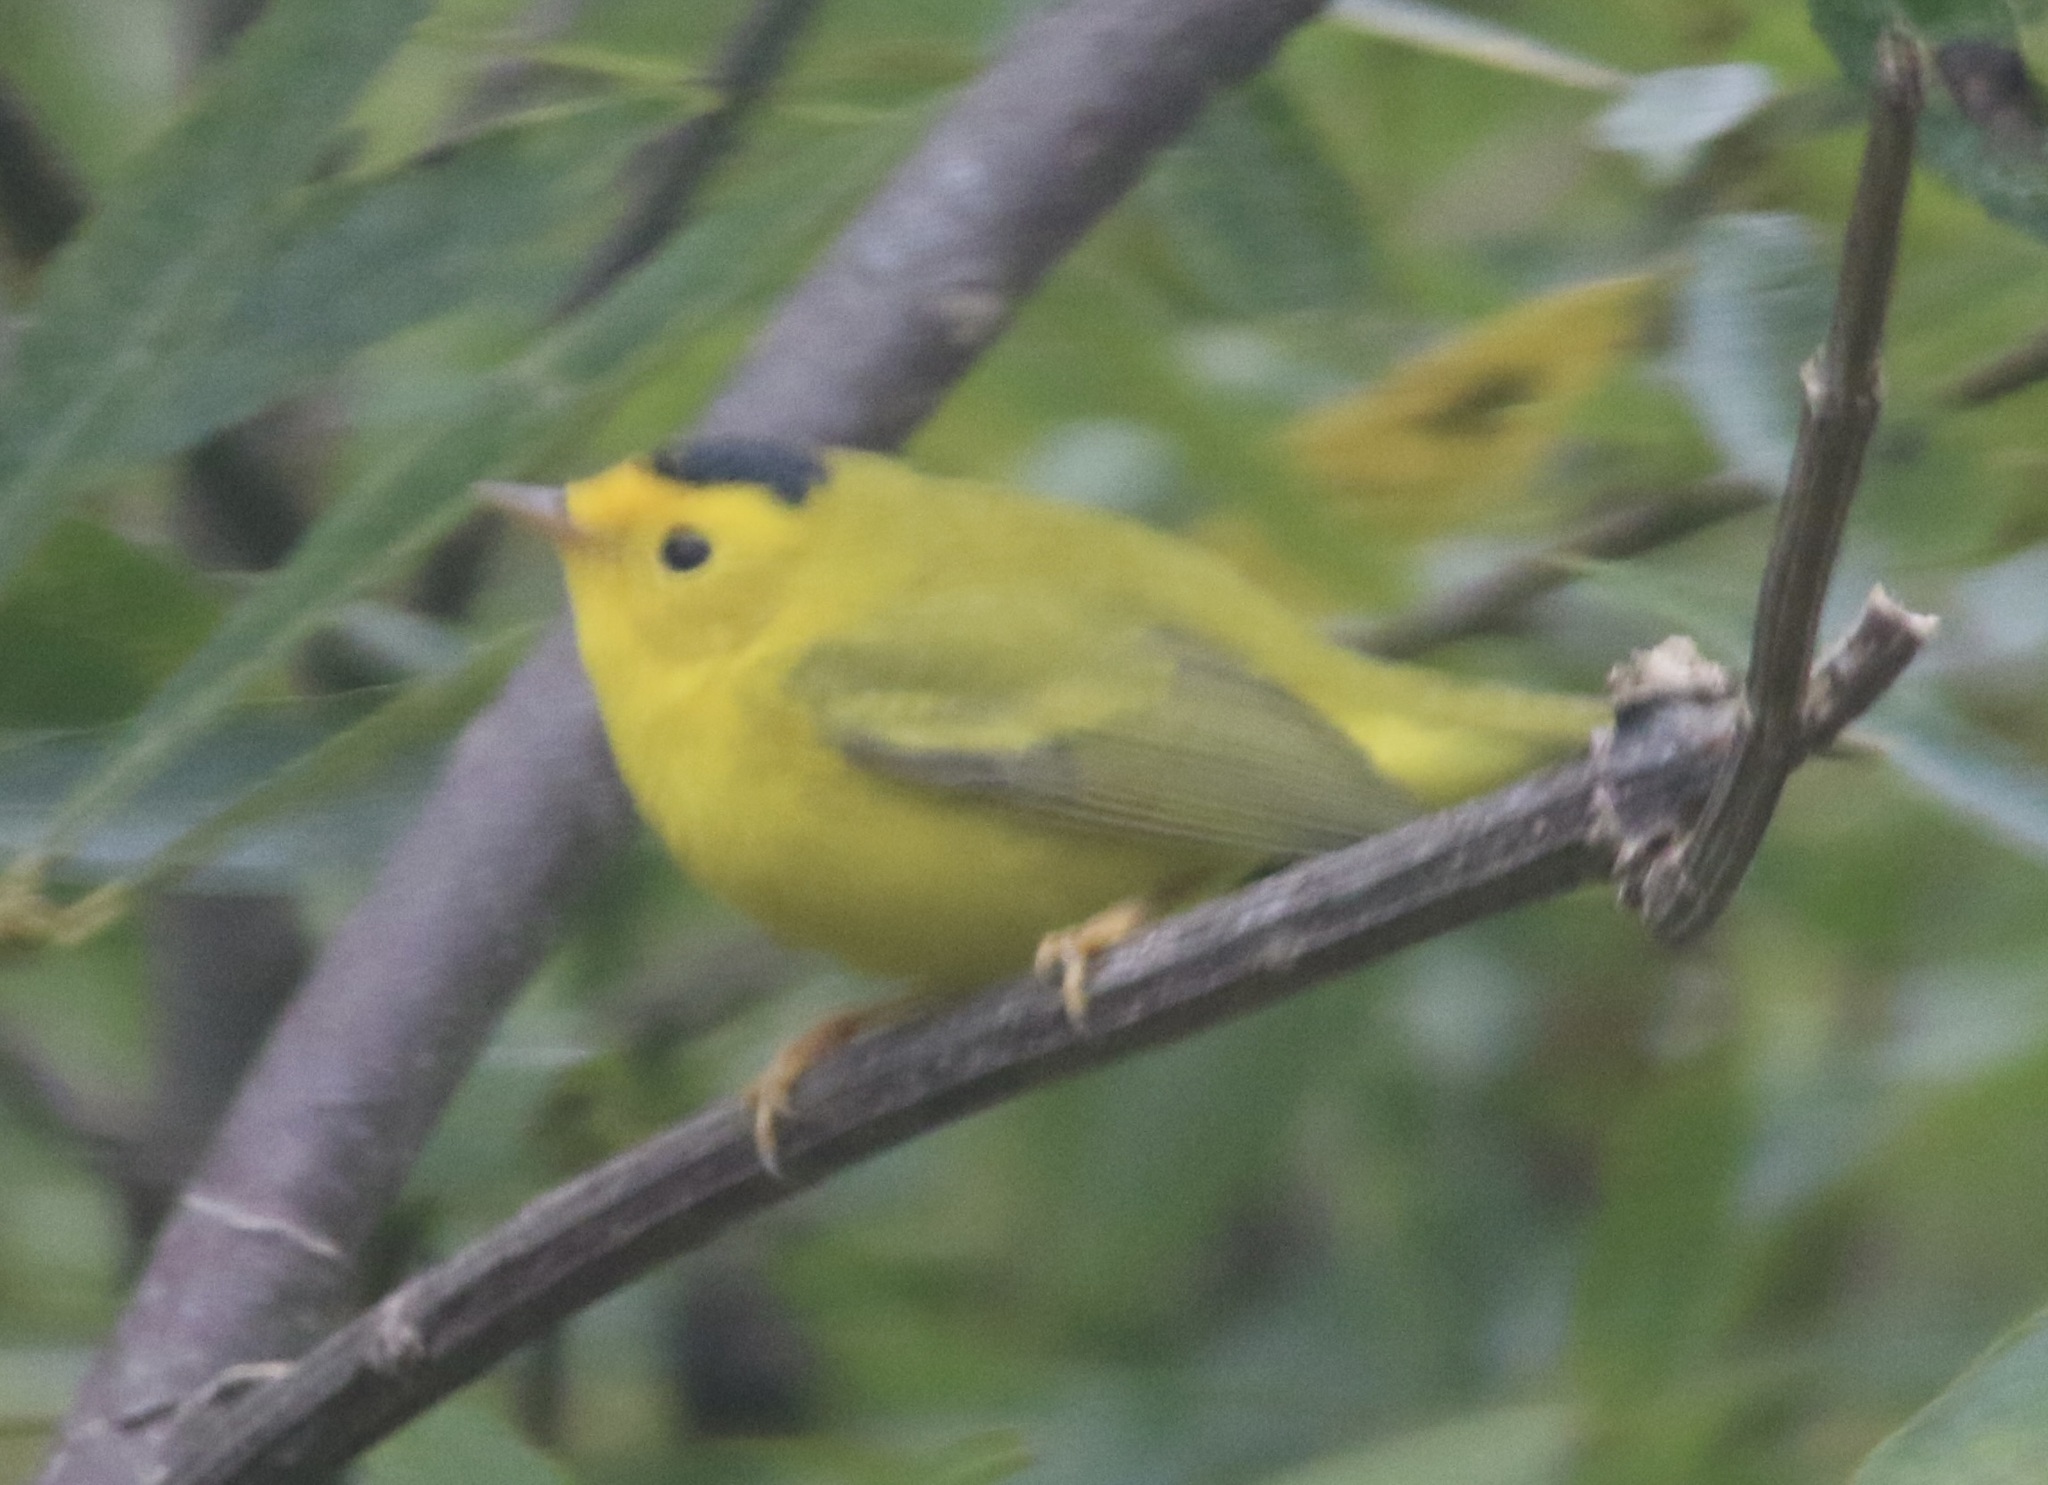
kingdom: Animalia
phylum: Chordata
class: Aves
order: Passeriformes
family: Parulidae
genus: Cardellina
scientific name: Cardellina pusilla
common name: Wilson's warbler
